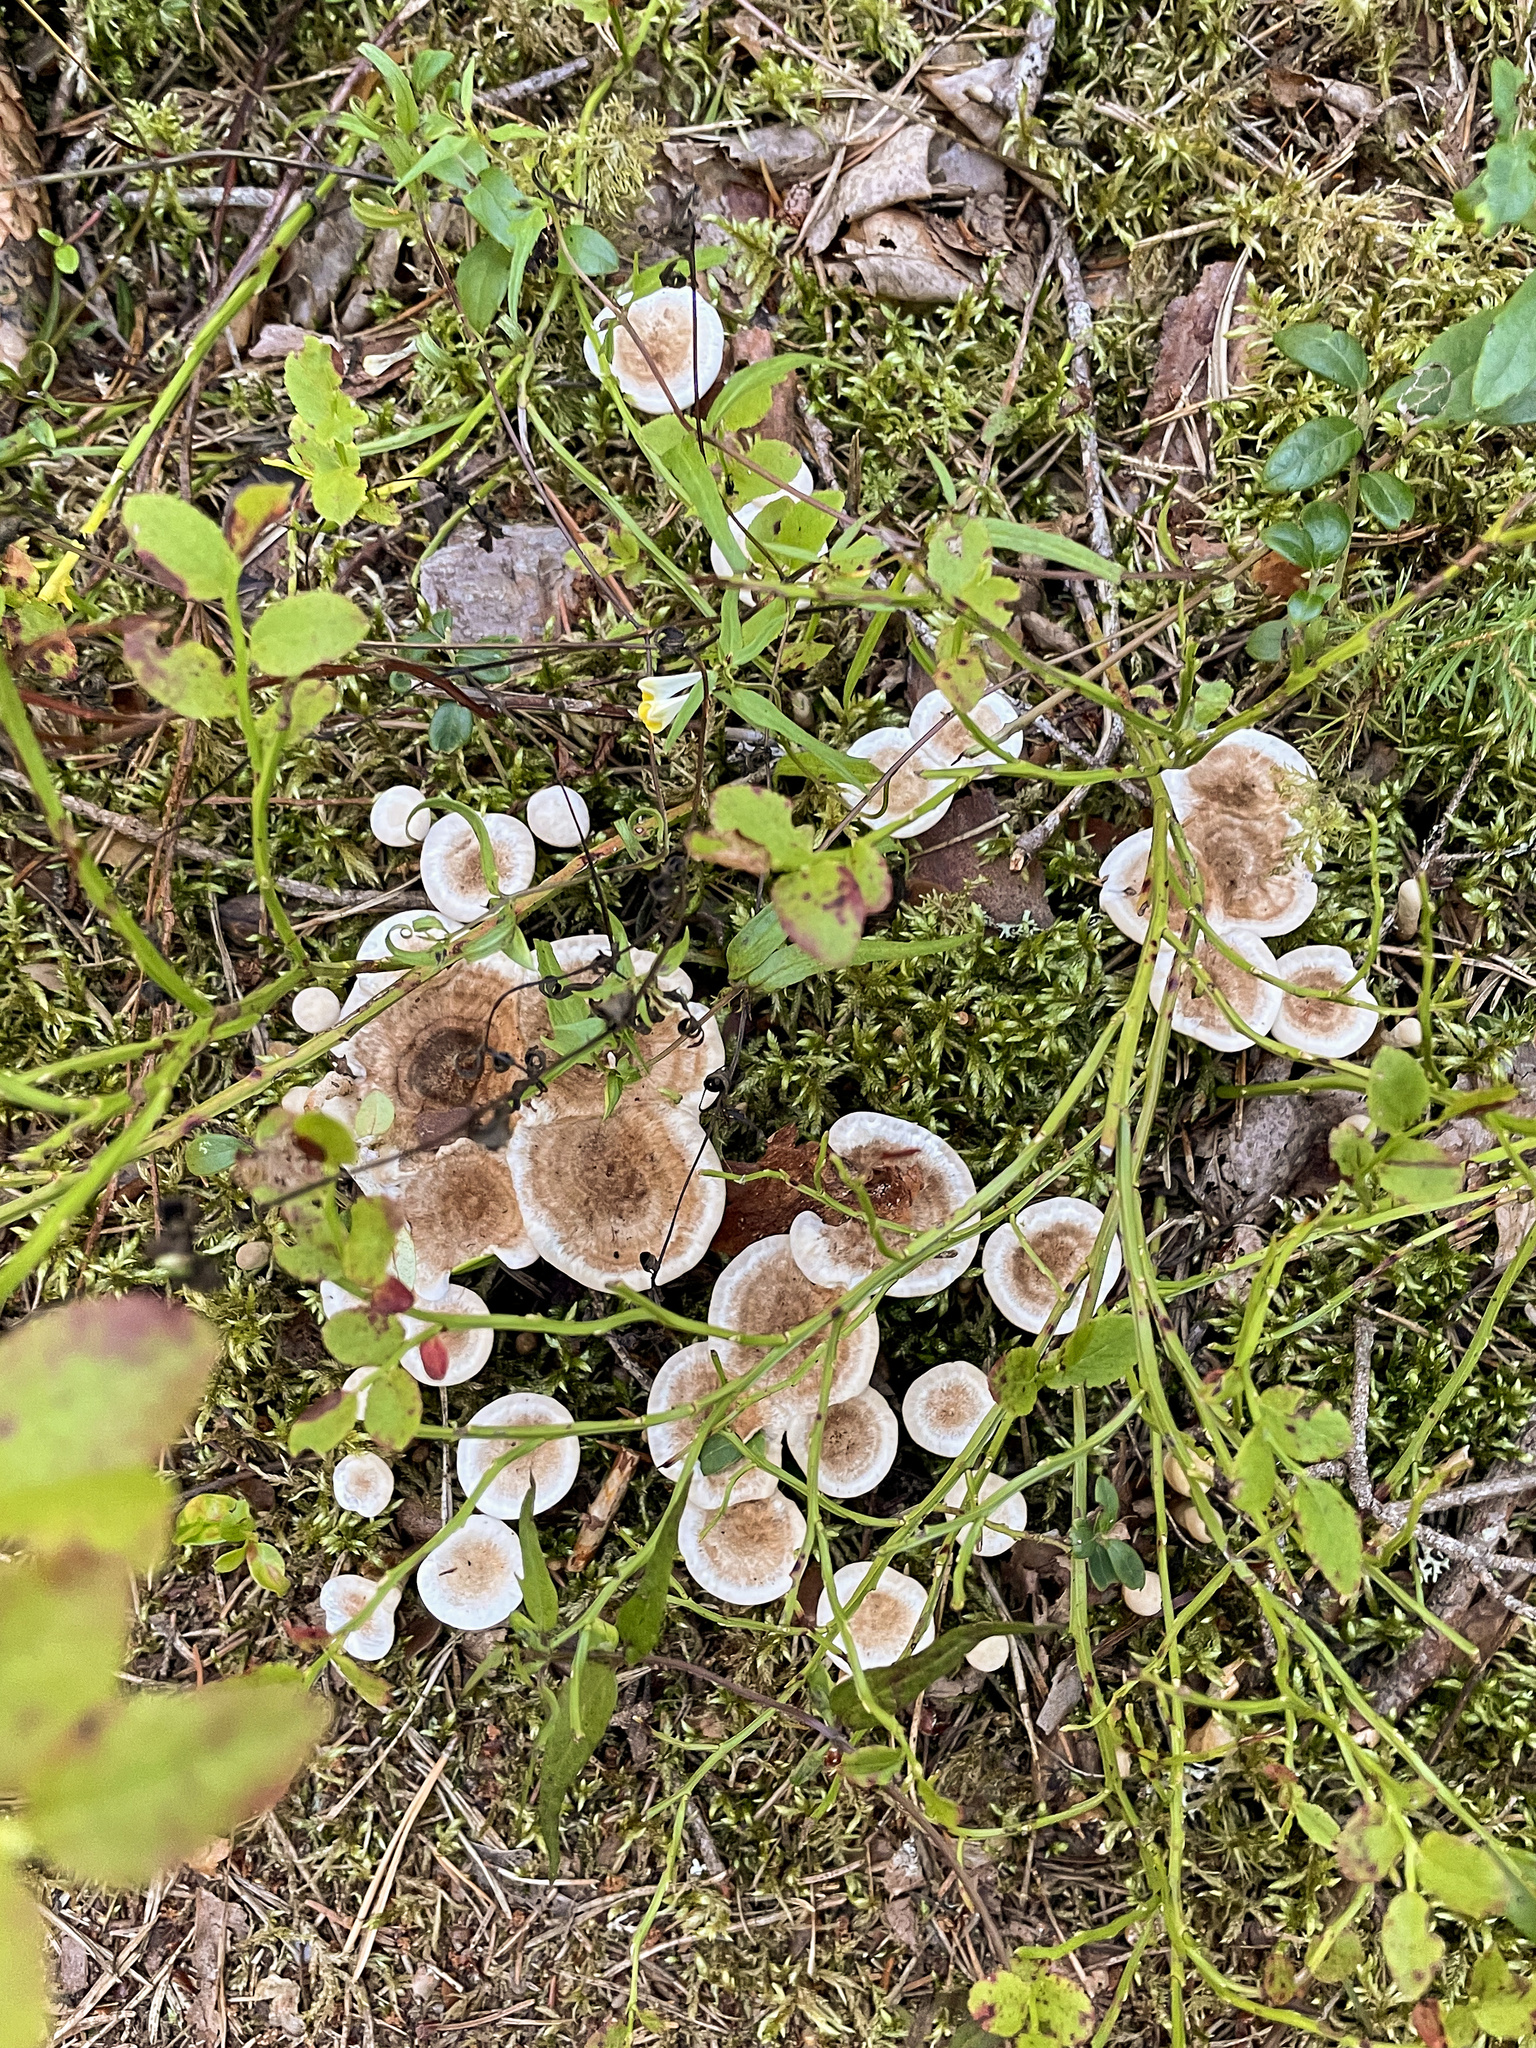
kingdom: Fungi
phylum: Basidiomycota
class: Agaricomycetes
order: Thelephorales
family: Thelephoraceae
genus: Phellodon
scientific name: Phellodon tomentosus
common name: Woolly tooth
